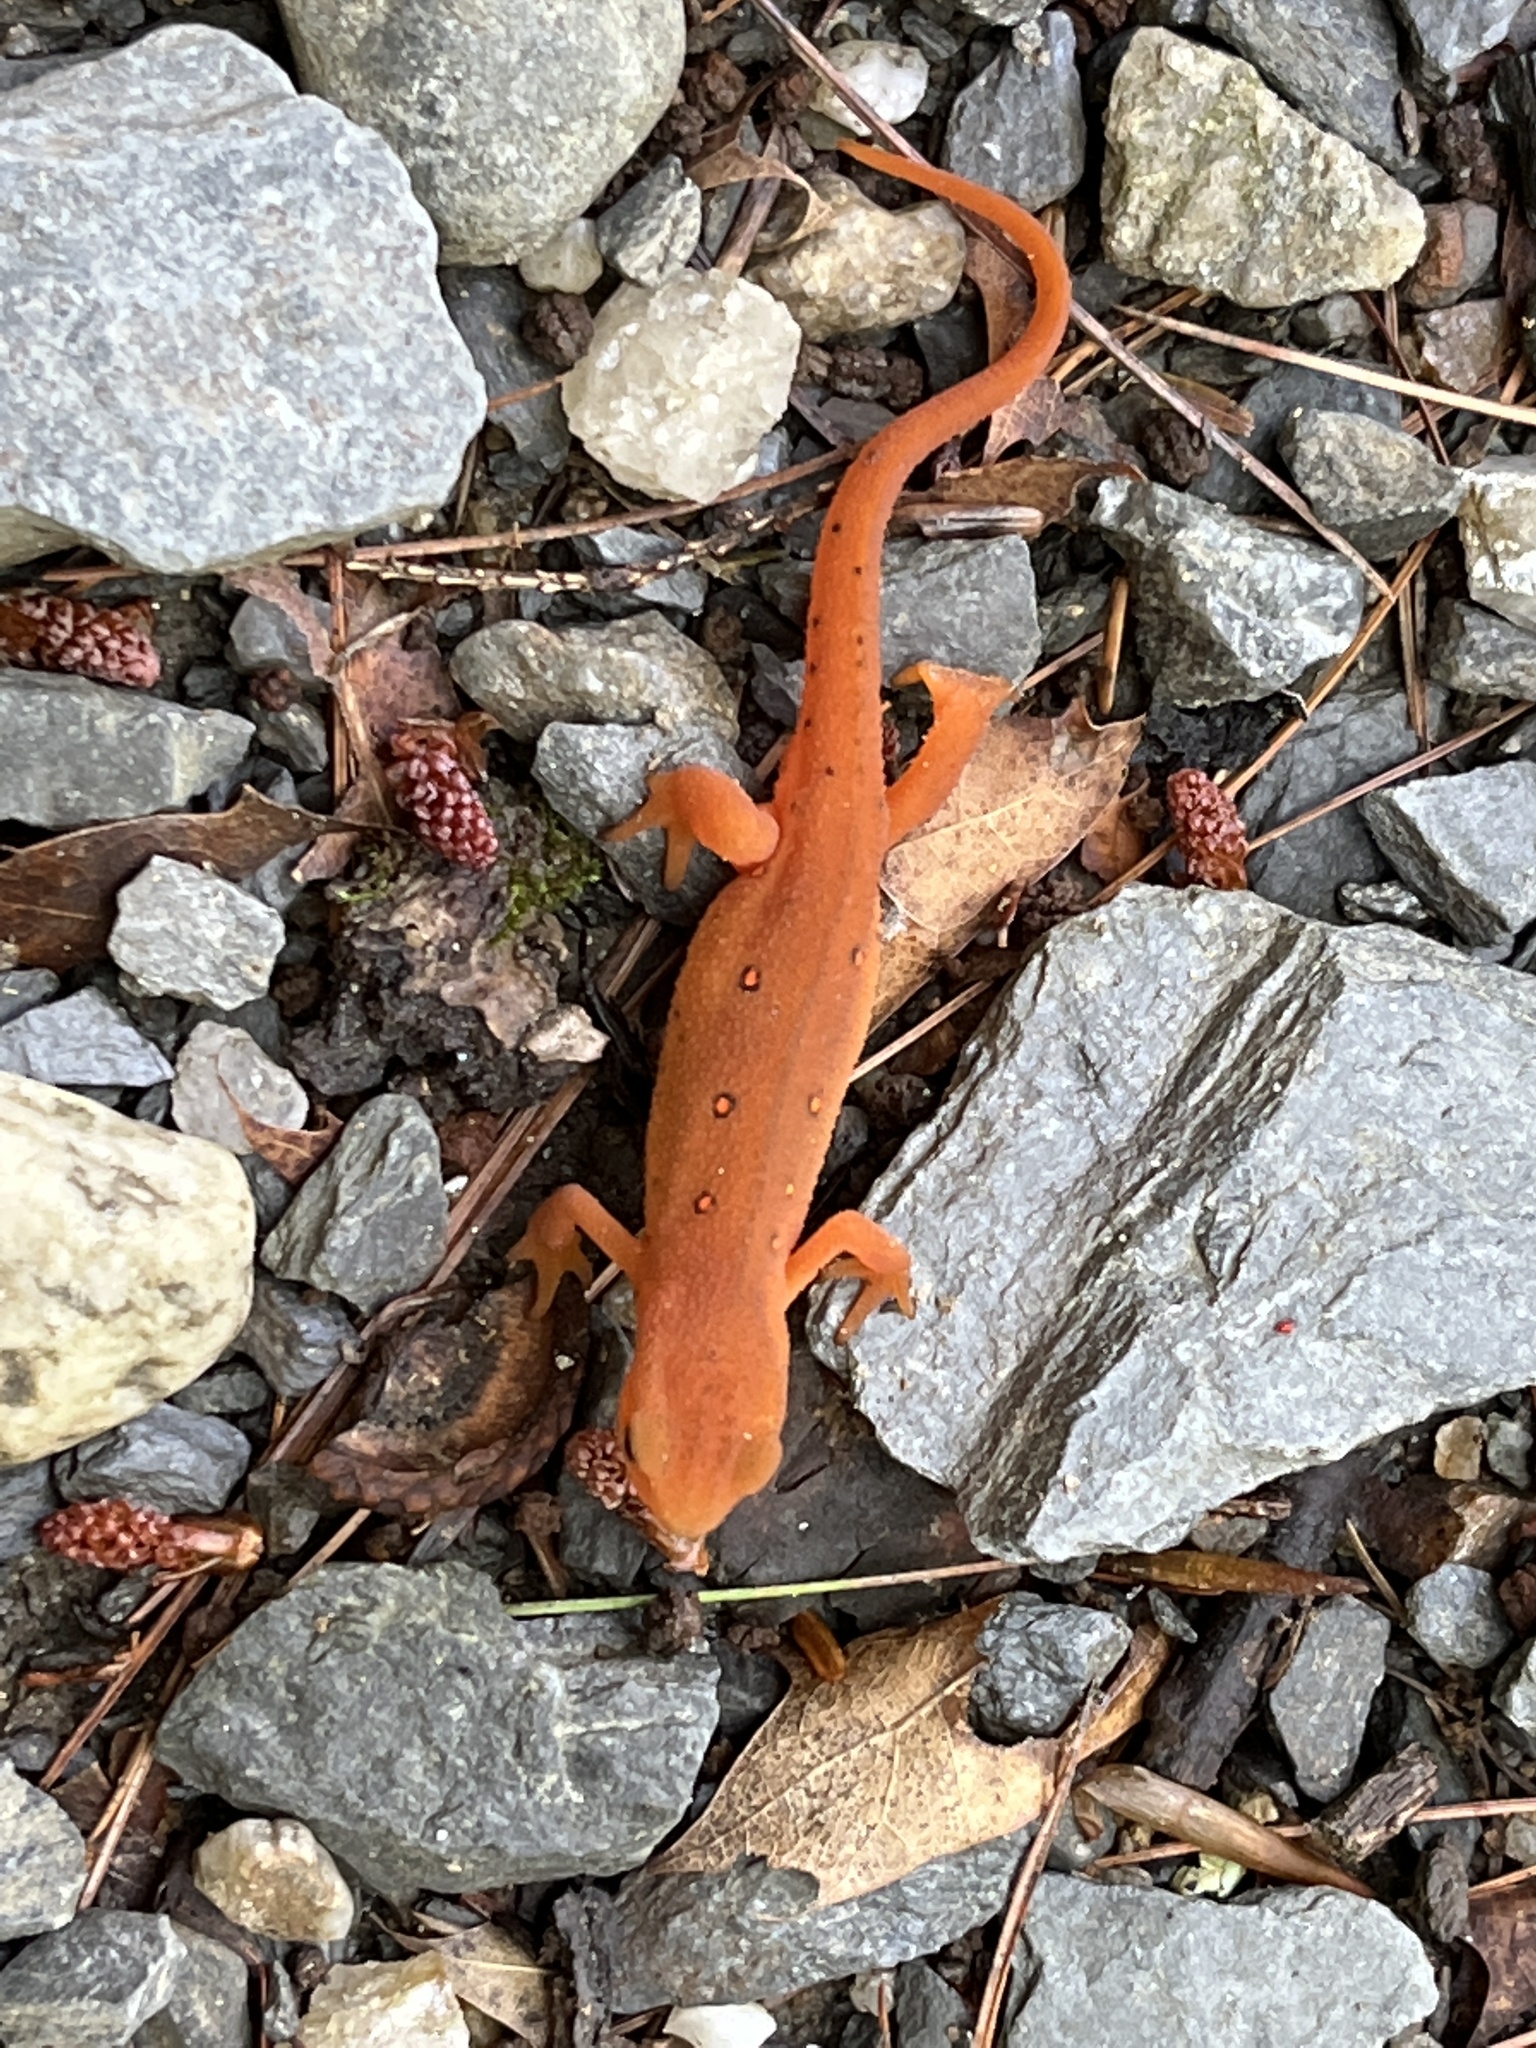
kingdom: Animalia
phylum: Chordata
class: Amphibia
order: Caudata
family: Salamandridae
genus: Notophthalmus
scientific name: Notophthalmus viridescens
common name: Eastern newt
